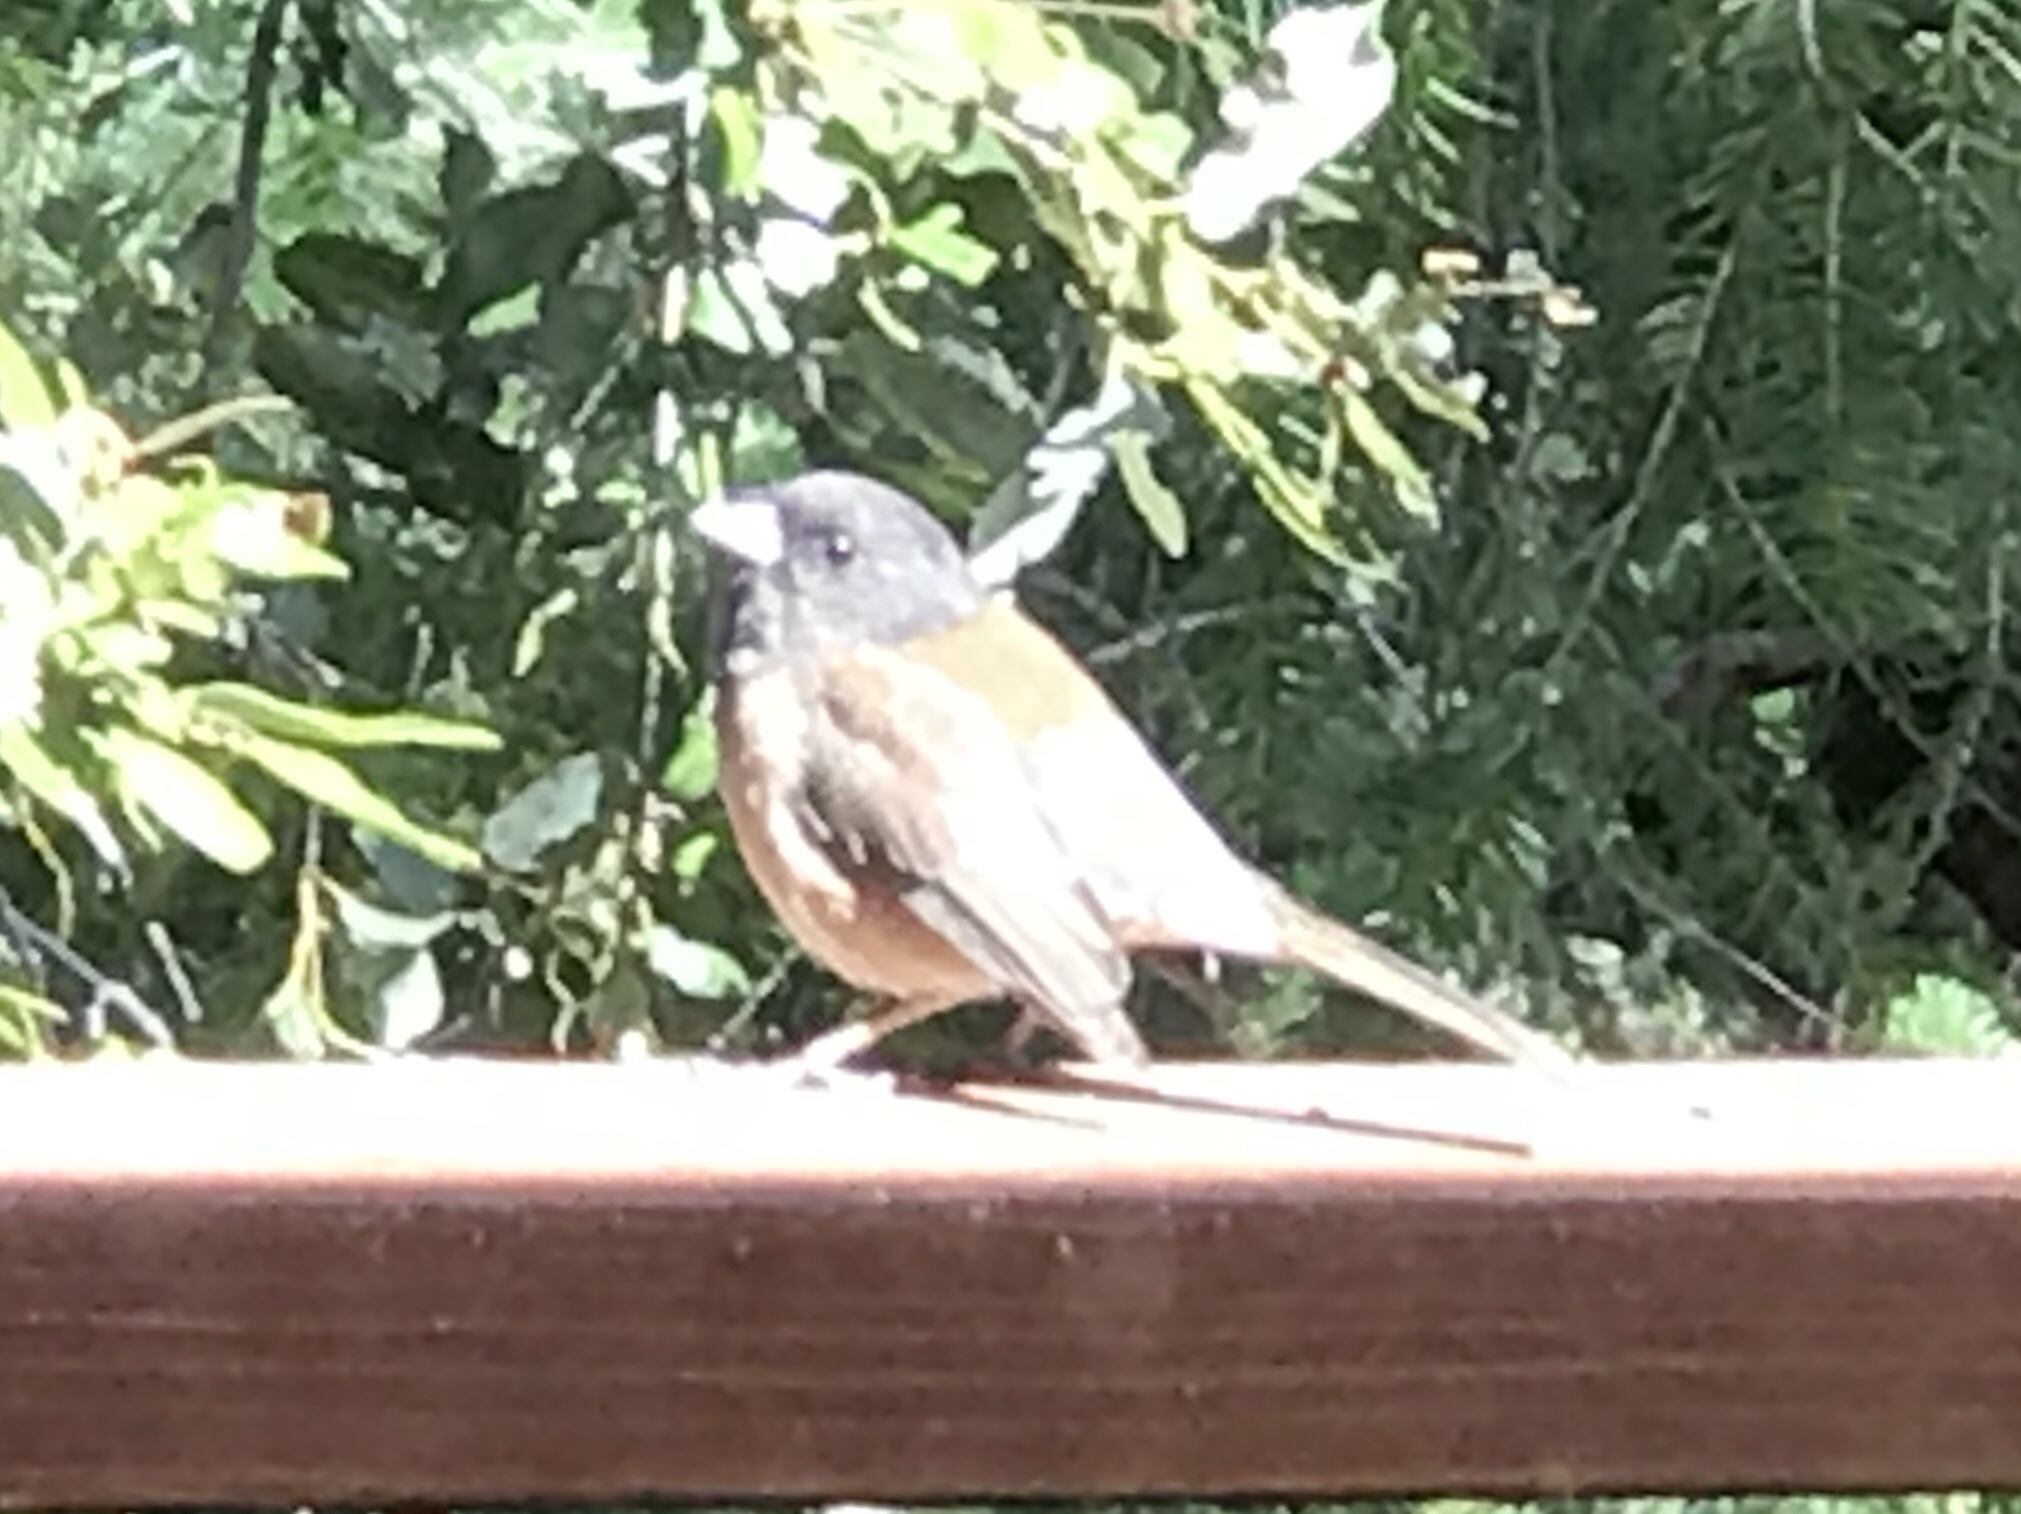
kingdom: Animalia
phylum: Chordata
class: Aves
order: Passeriformes
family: Passerellidae
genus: Junco
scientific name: Junco hyemalis
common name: Dark-eyed junco
